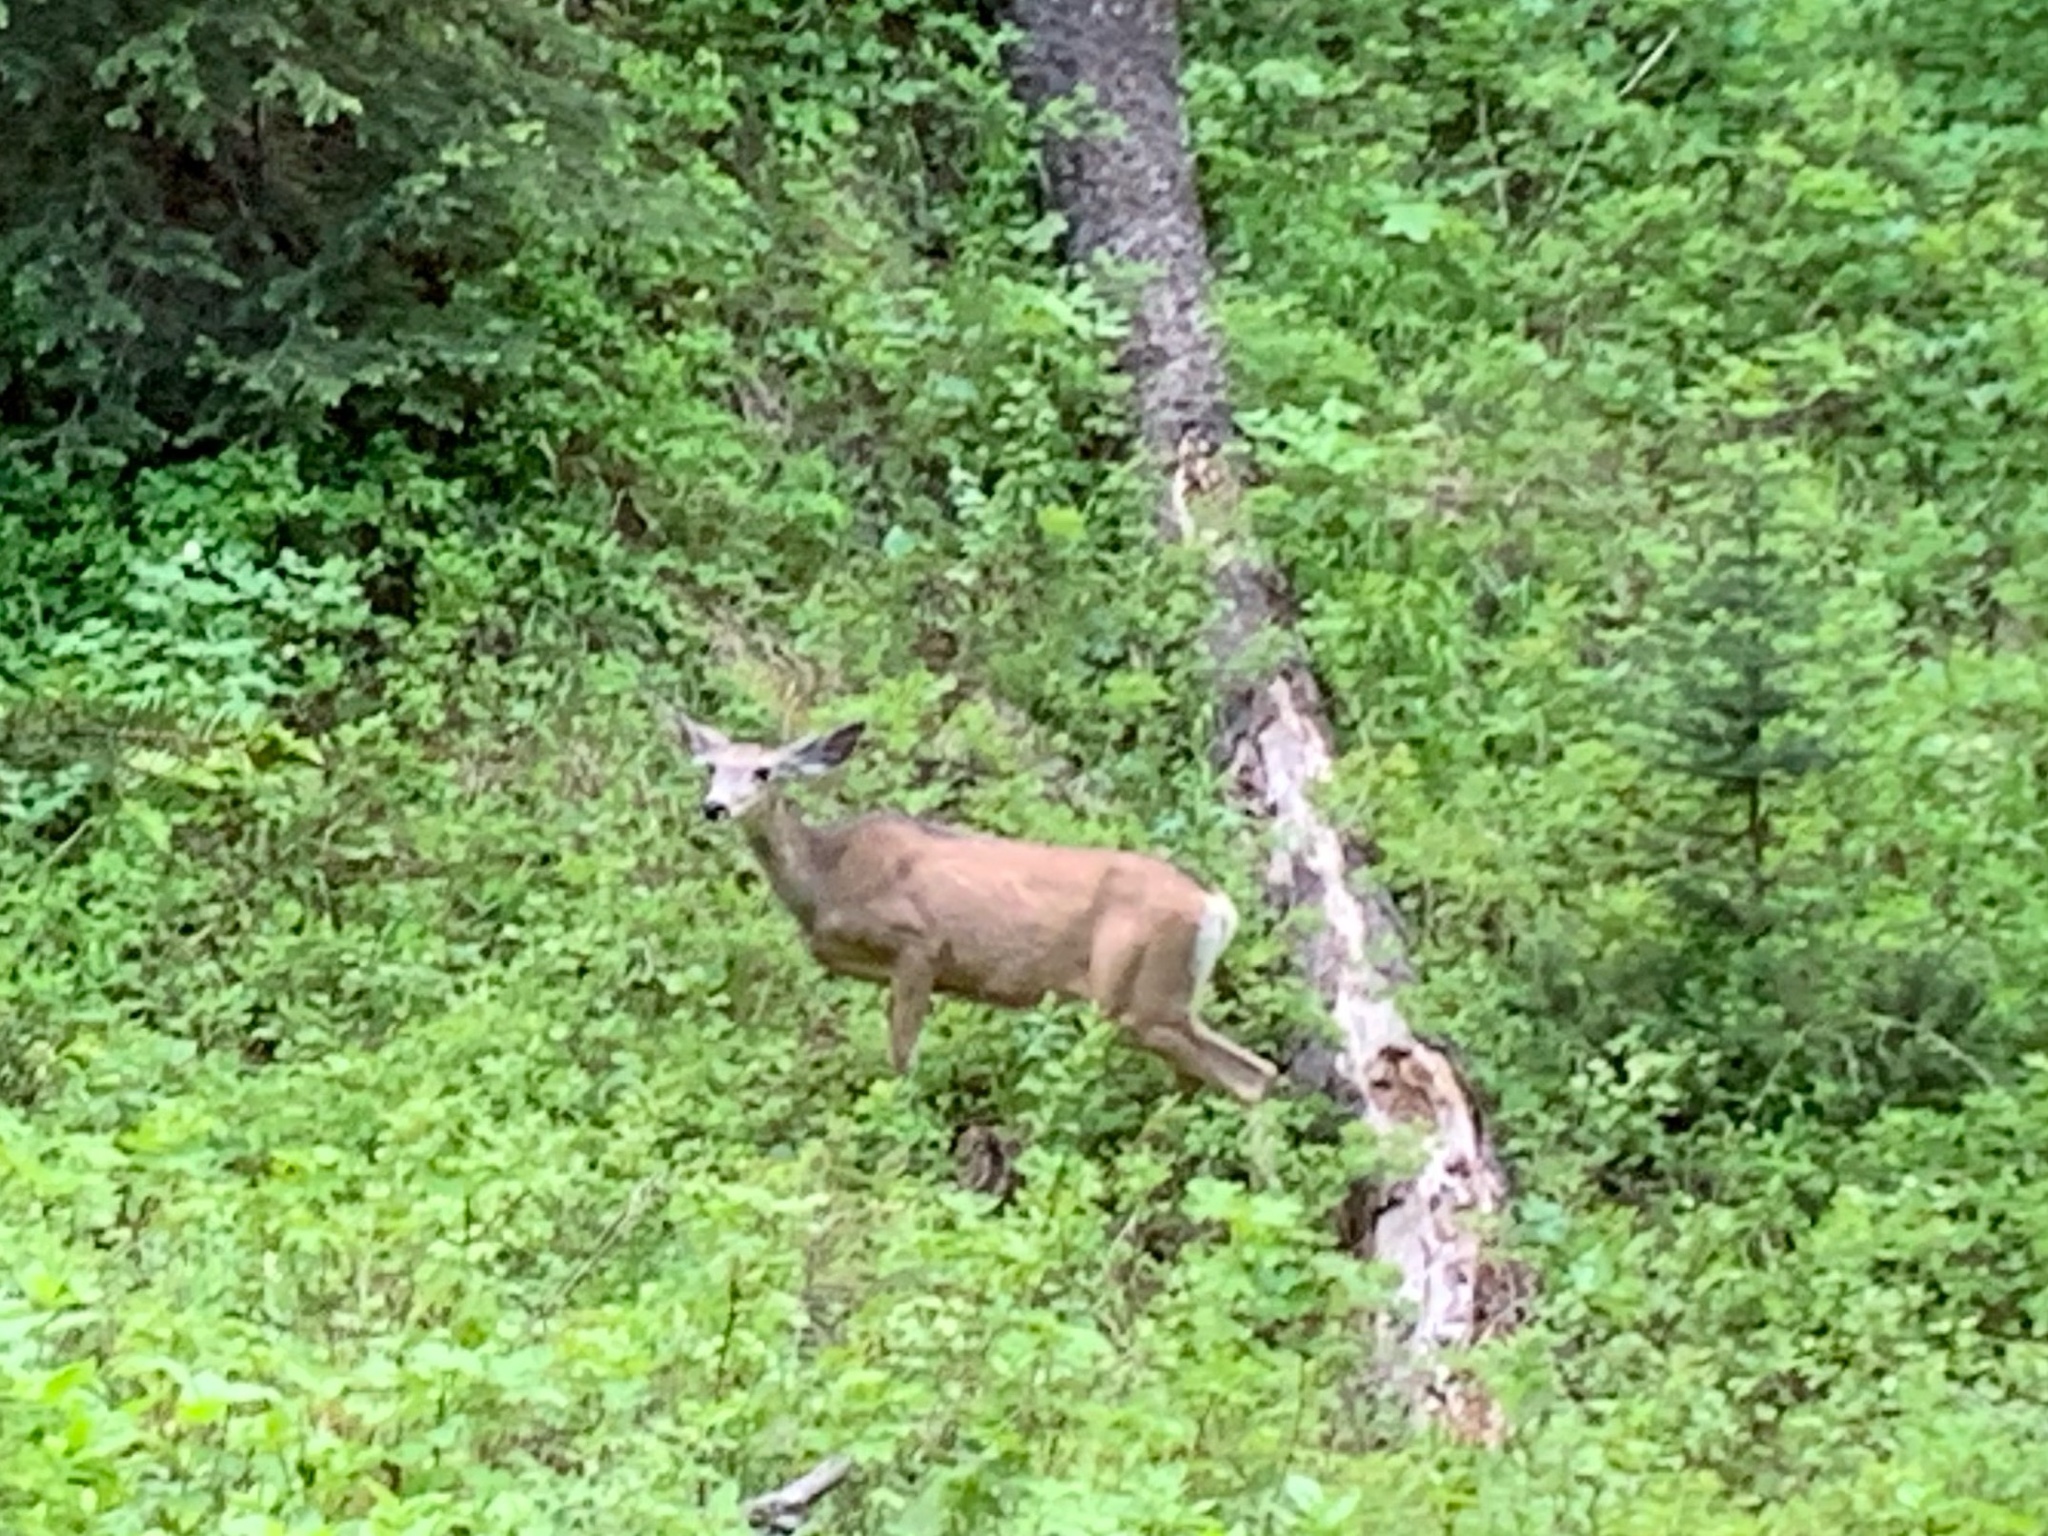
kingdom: Animalia
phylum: Chordata
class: Mammalia
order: Artiodactyla
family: Cervidae
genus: Odocoileus
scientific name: Odocoileus hemionus
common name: Mule deer
